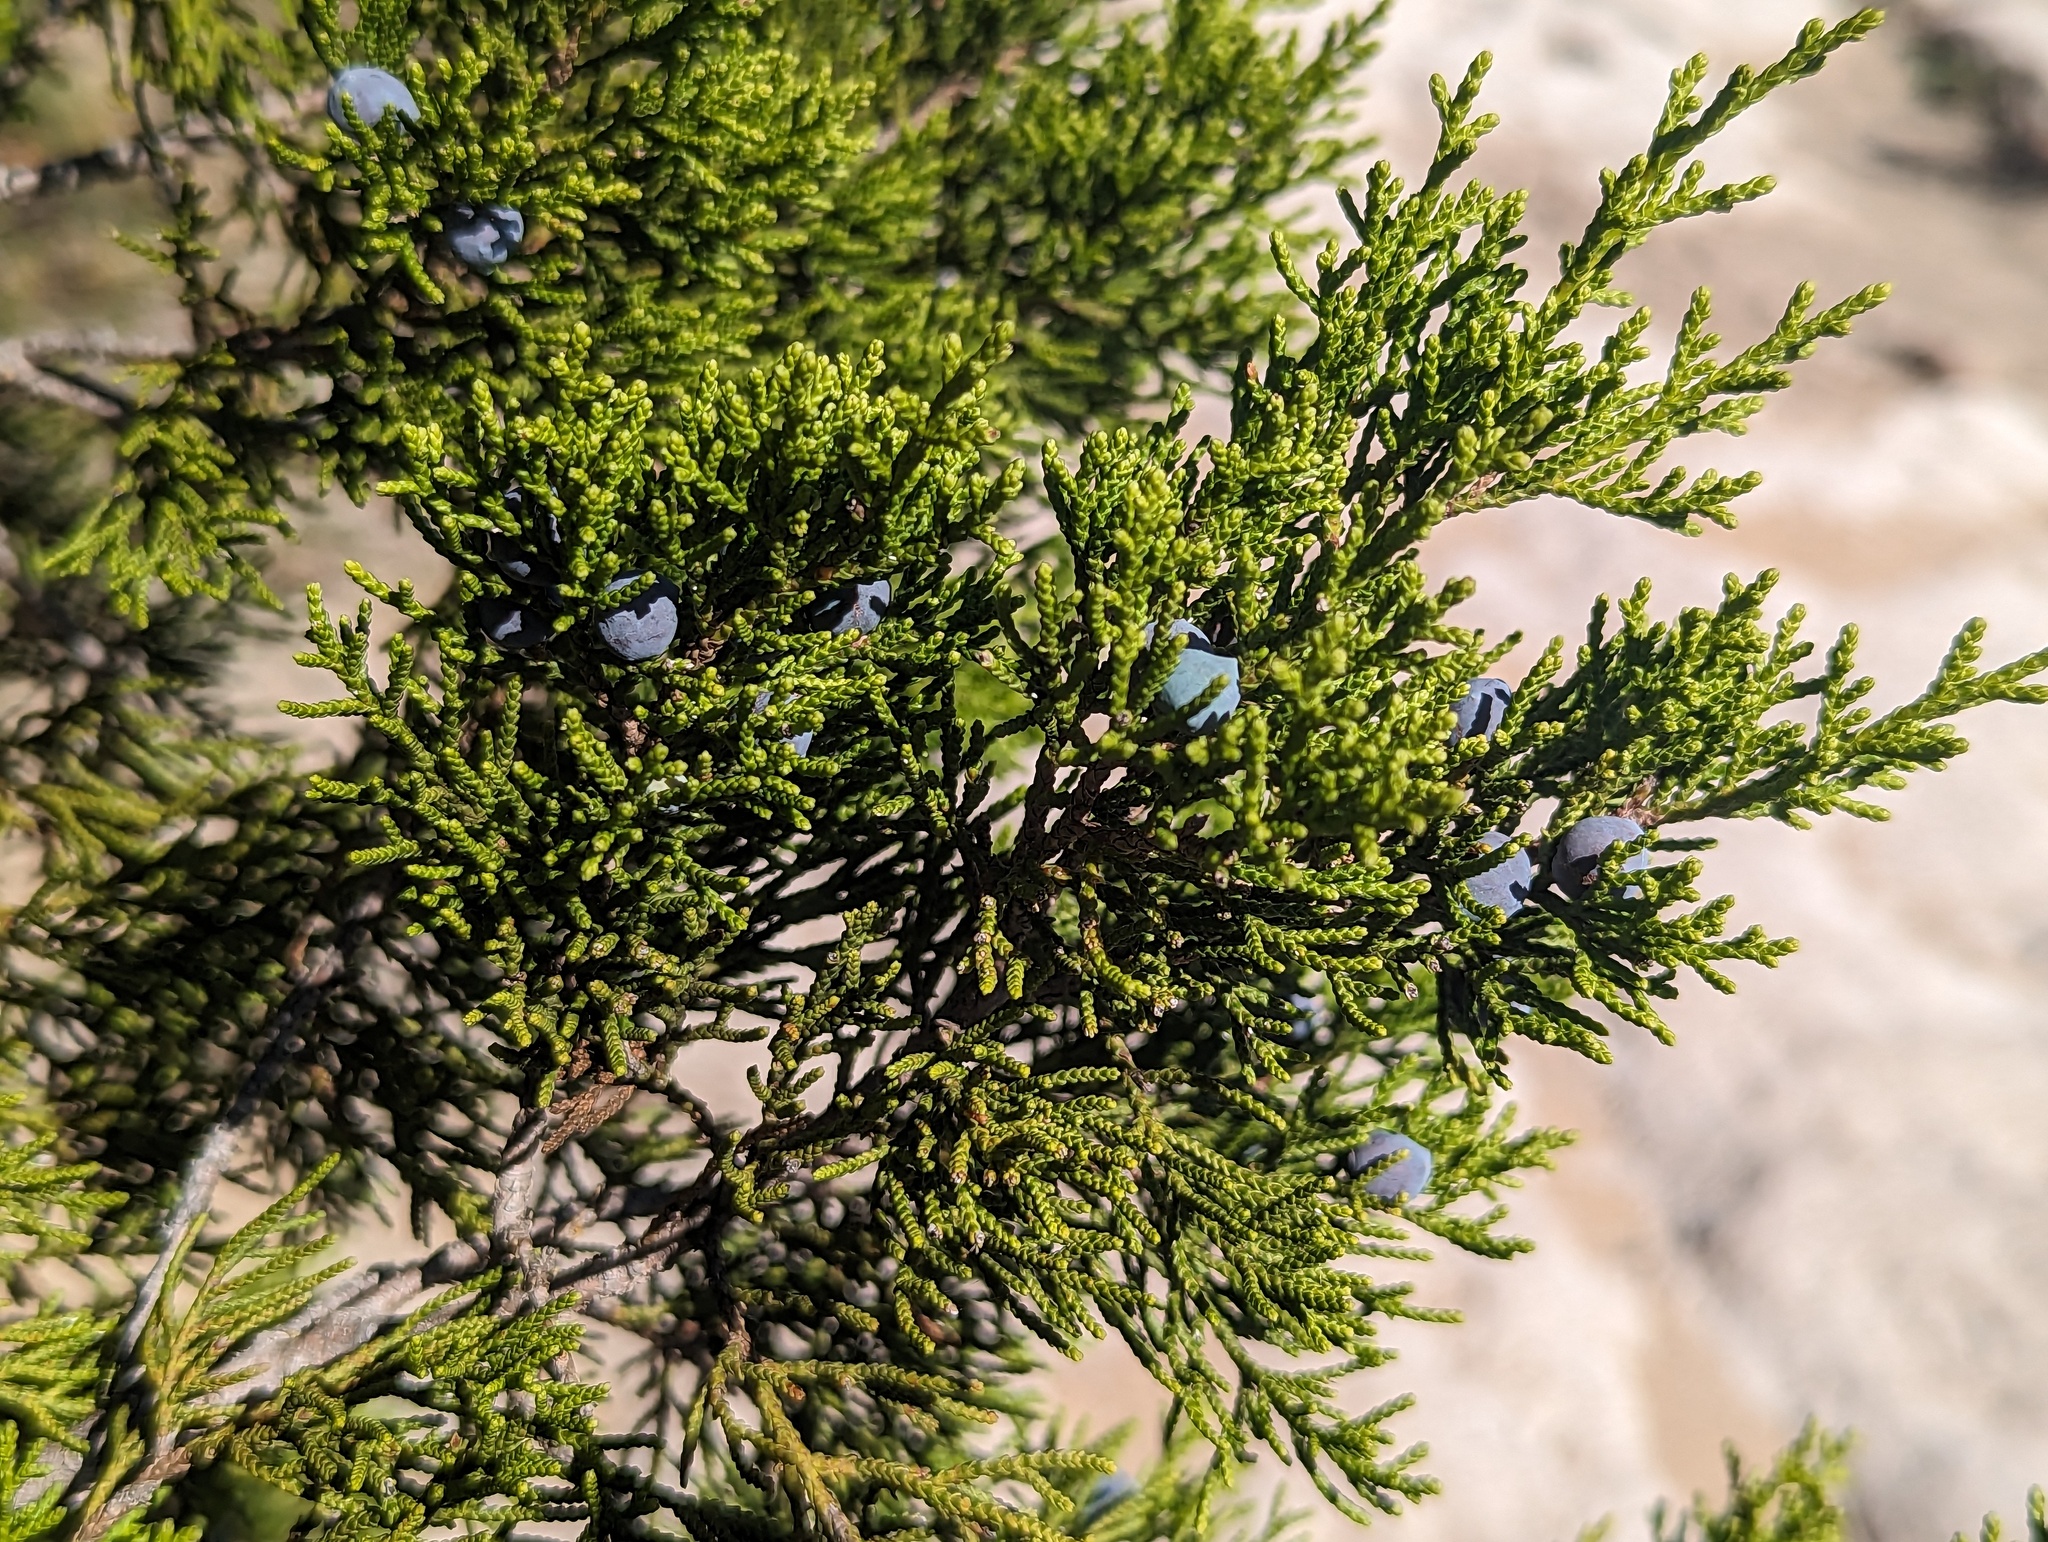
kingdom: Plantae
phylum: Tracheophyta
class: Pinopsida
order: Pinales
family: Cupressaceae
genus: Juniperus
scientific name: Juniperus ashei
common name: Mexican juniper
